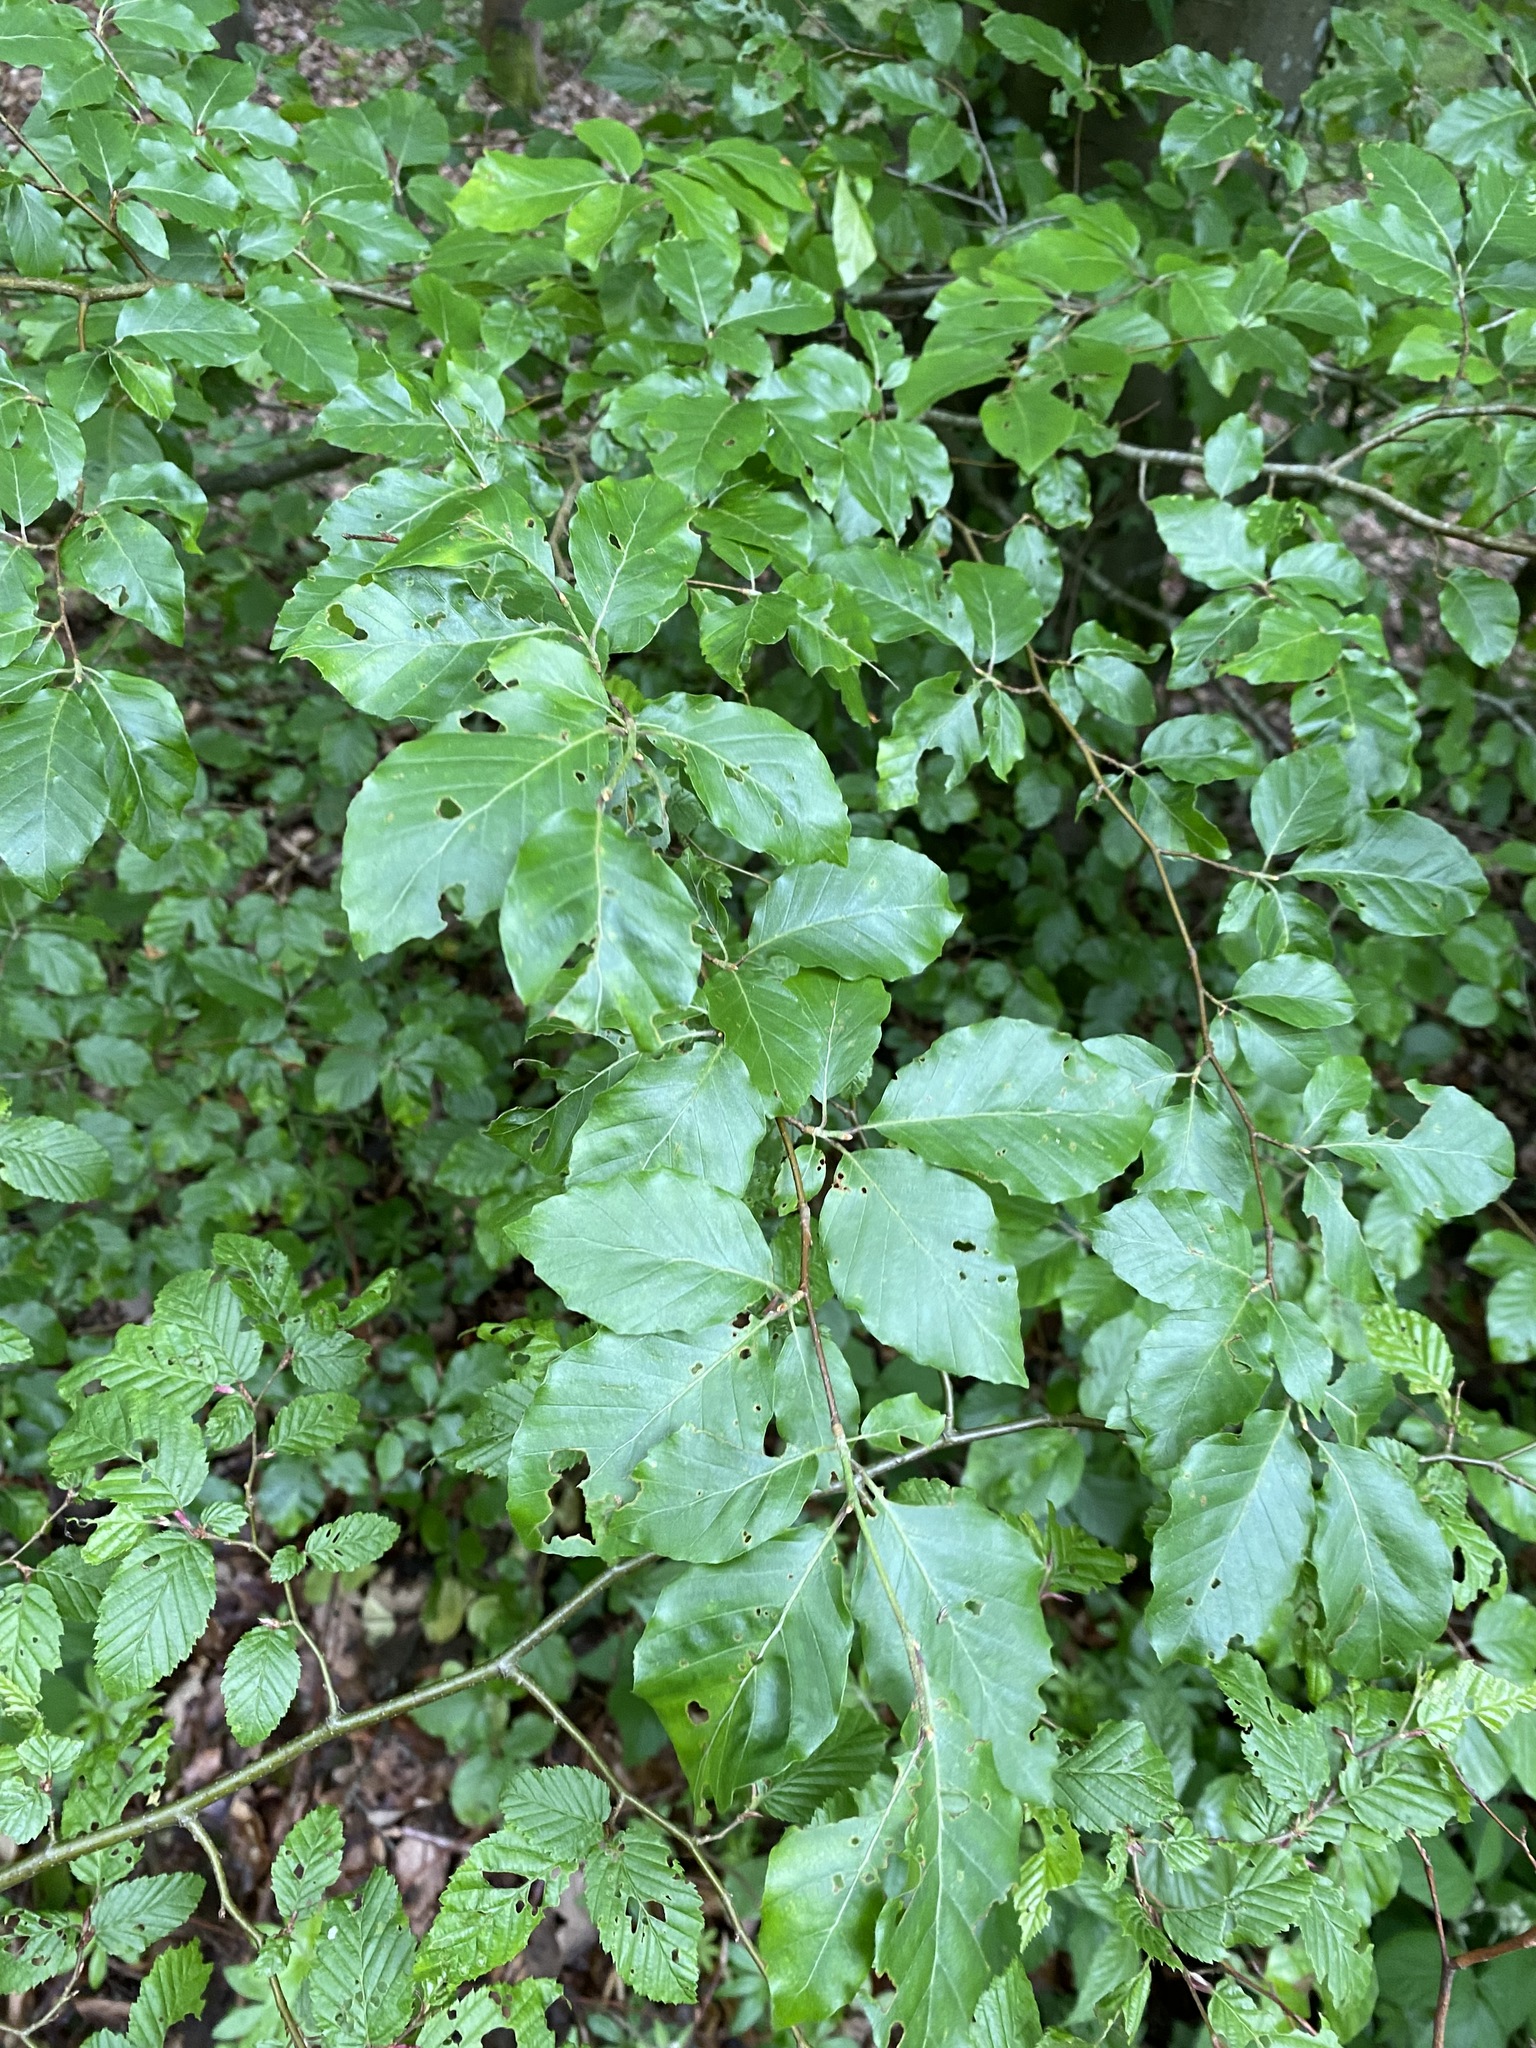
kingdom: Plantae
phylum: Tracheophyta
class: Magnoliopsida
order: Fagales
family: Fagaceae
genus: Fagus
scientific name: Fagus sylvatica
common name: Beech
